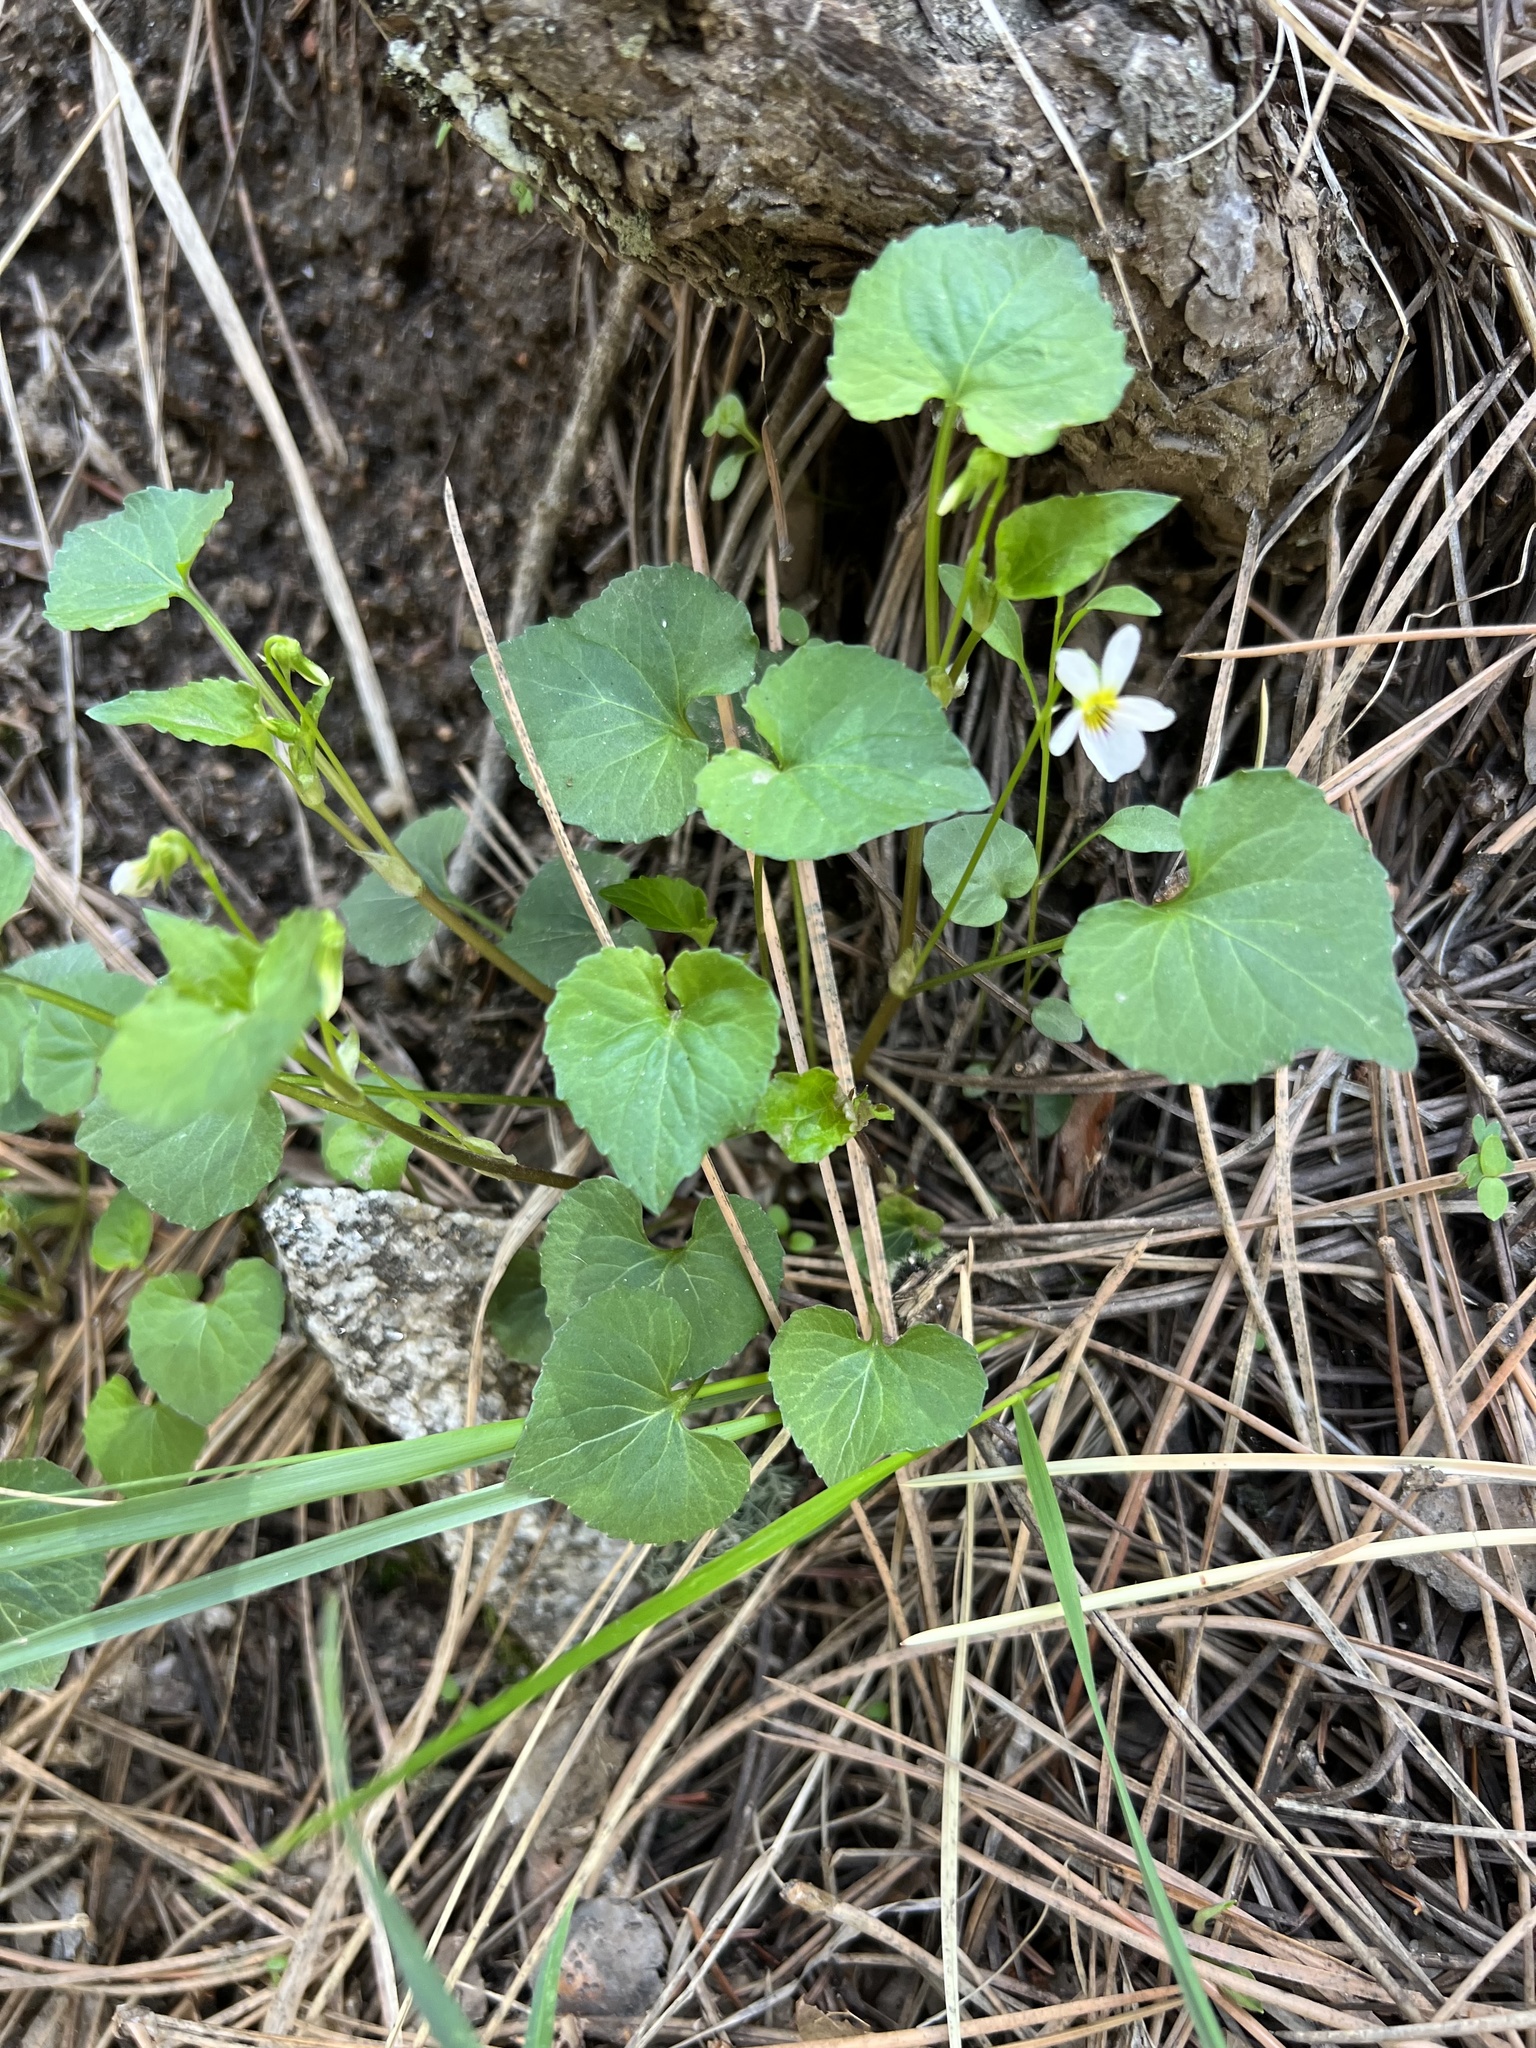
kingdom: Plantae
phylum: Tracheophyta
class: Magnoliopsida
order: Malpighiales
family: Violaceae
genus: Viola
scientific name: Viola canadensis
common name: Canada violet
